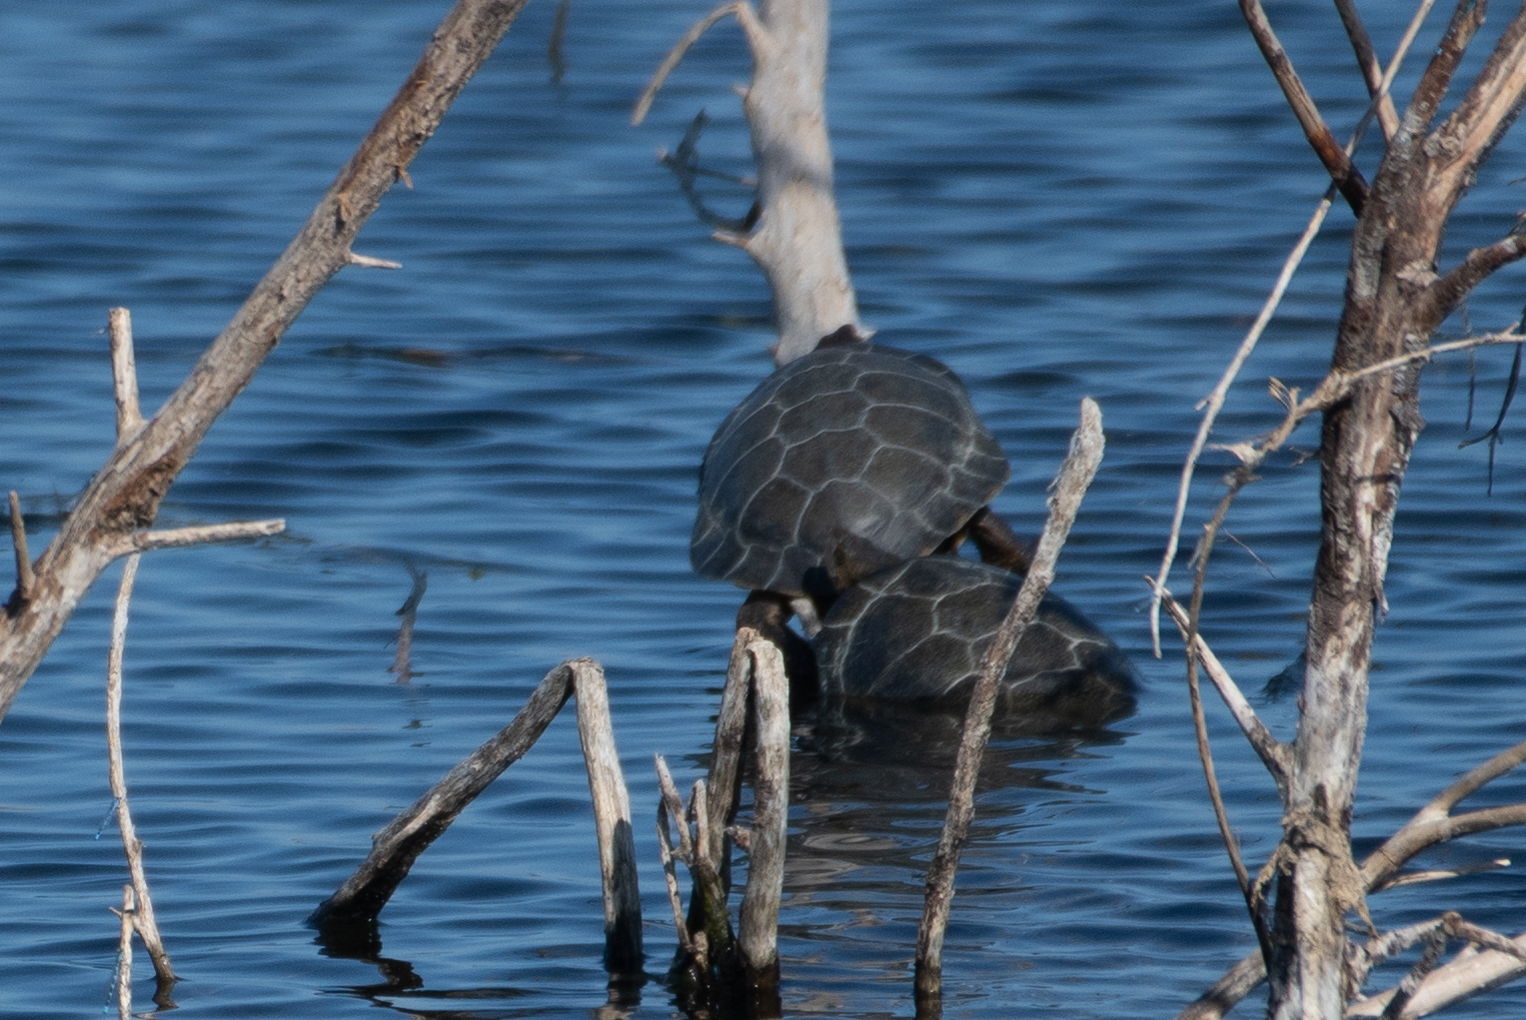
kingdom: Animalia
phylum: Chordata
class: Testudines
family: Emydidae
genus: Actinemys
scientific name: Actinemys marmorata
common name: Western pond turtle
